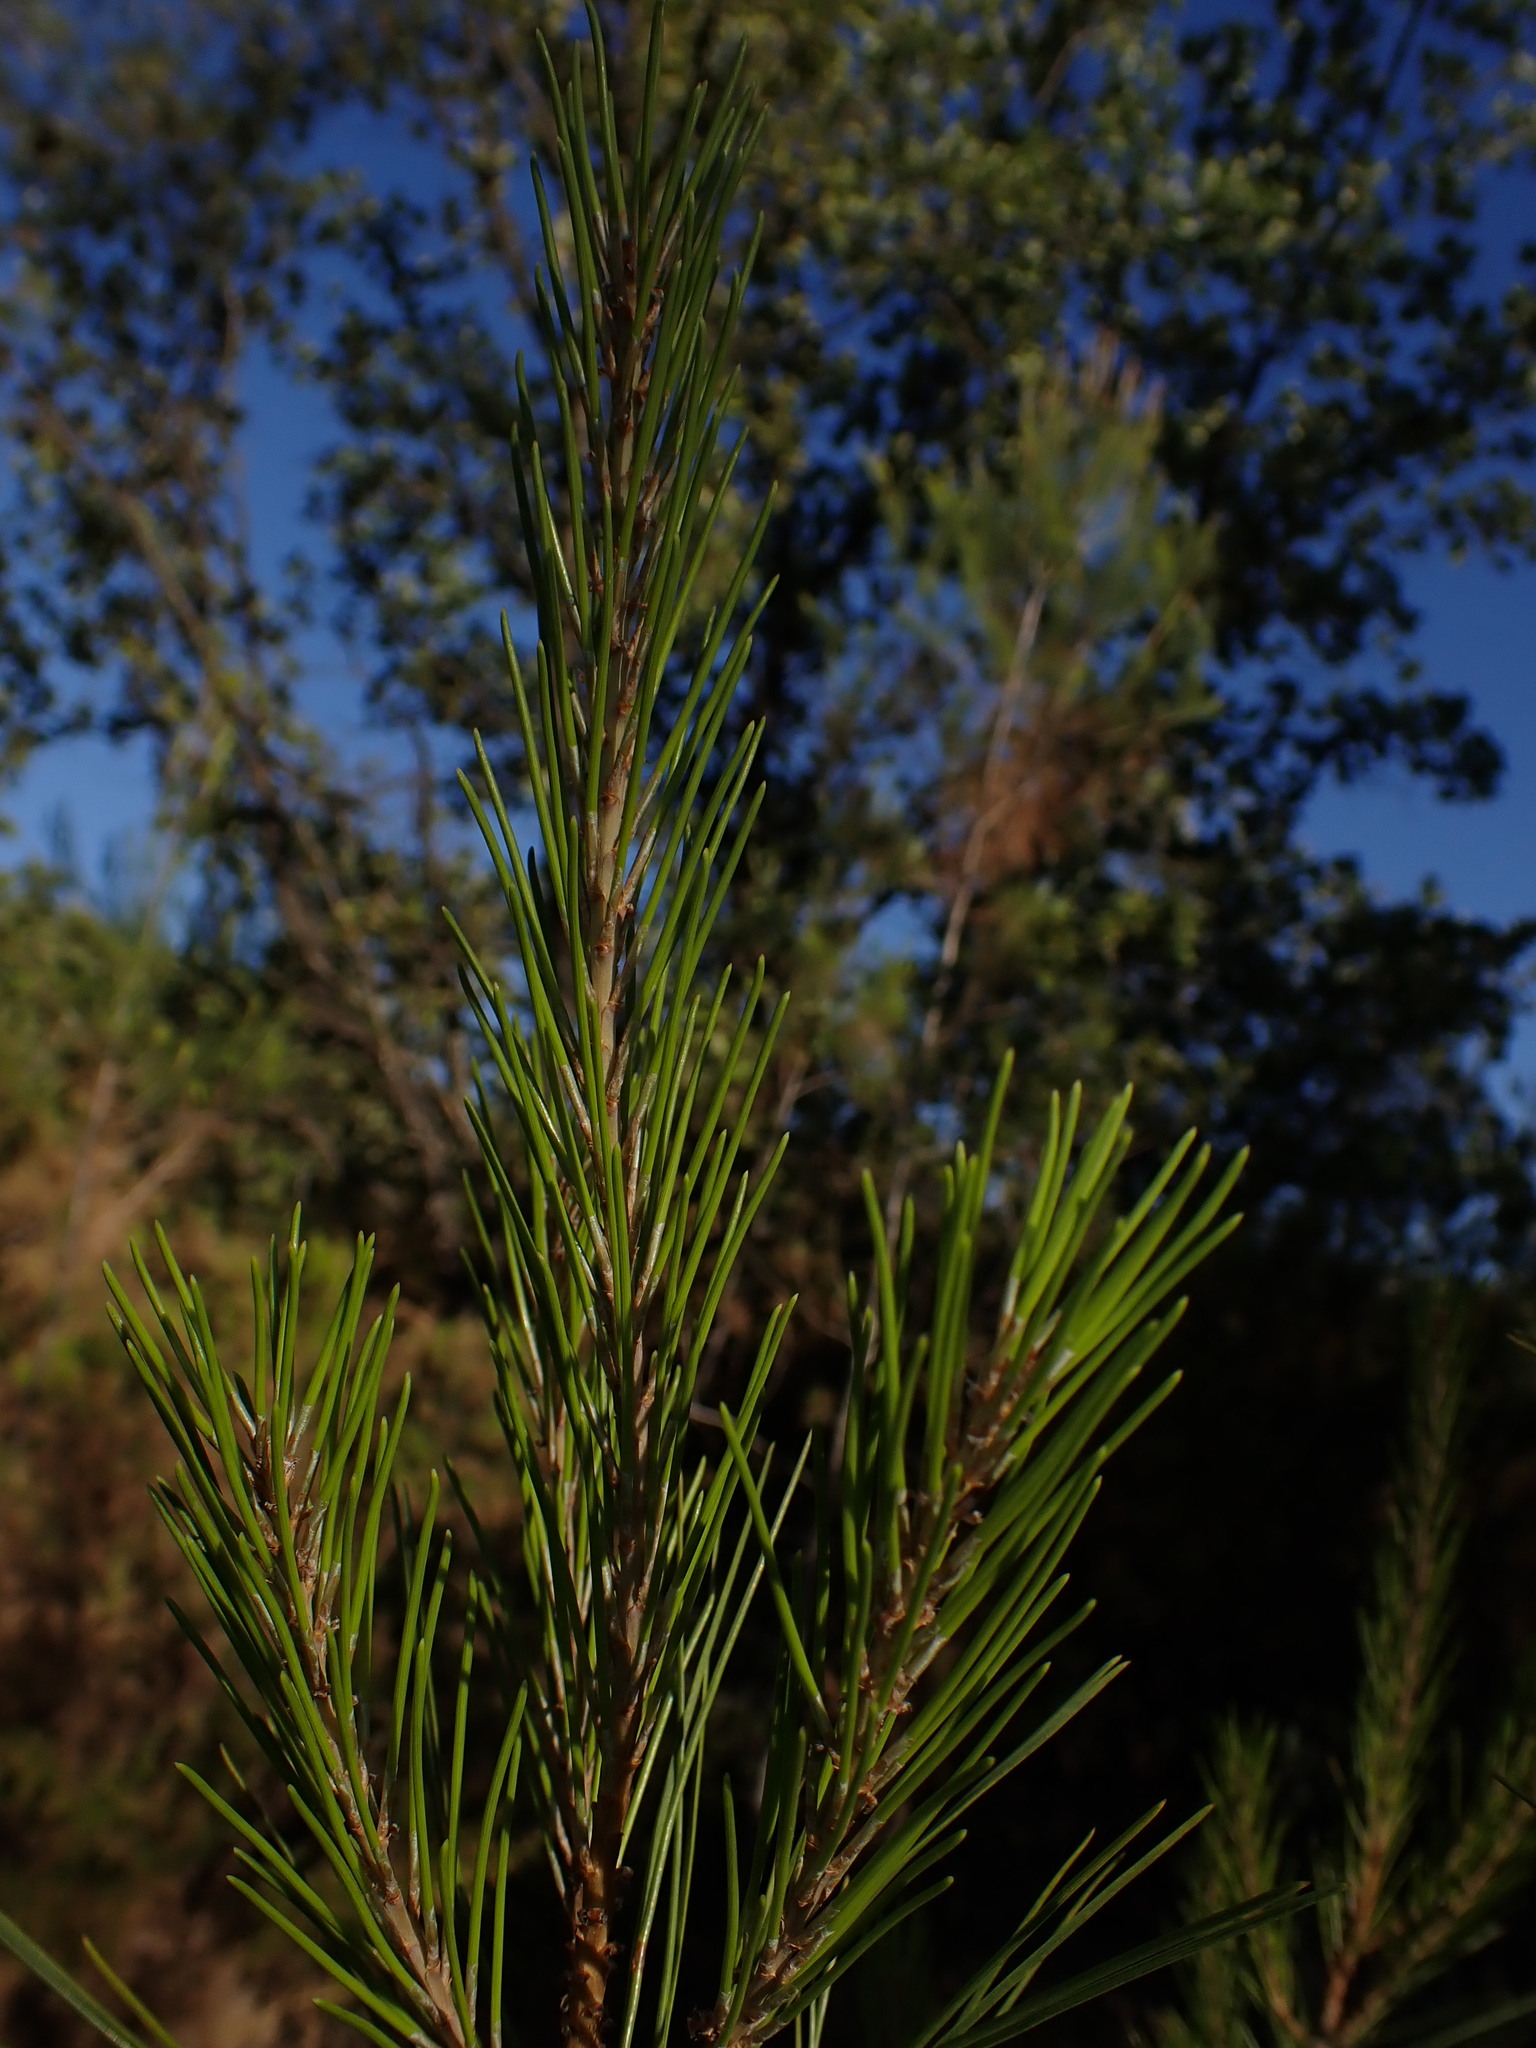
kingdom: Plantae
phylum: Tracheophyta
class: Pinopsida
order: Pinales
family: Pinaceae
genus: Pinus
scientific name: Pinus halepensis
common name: Aleppo pine
